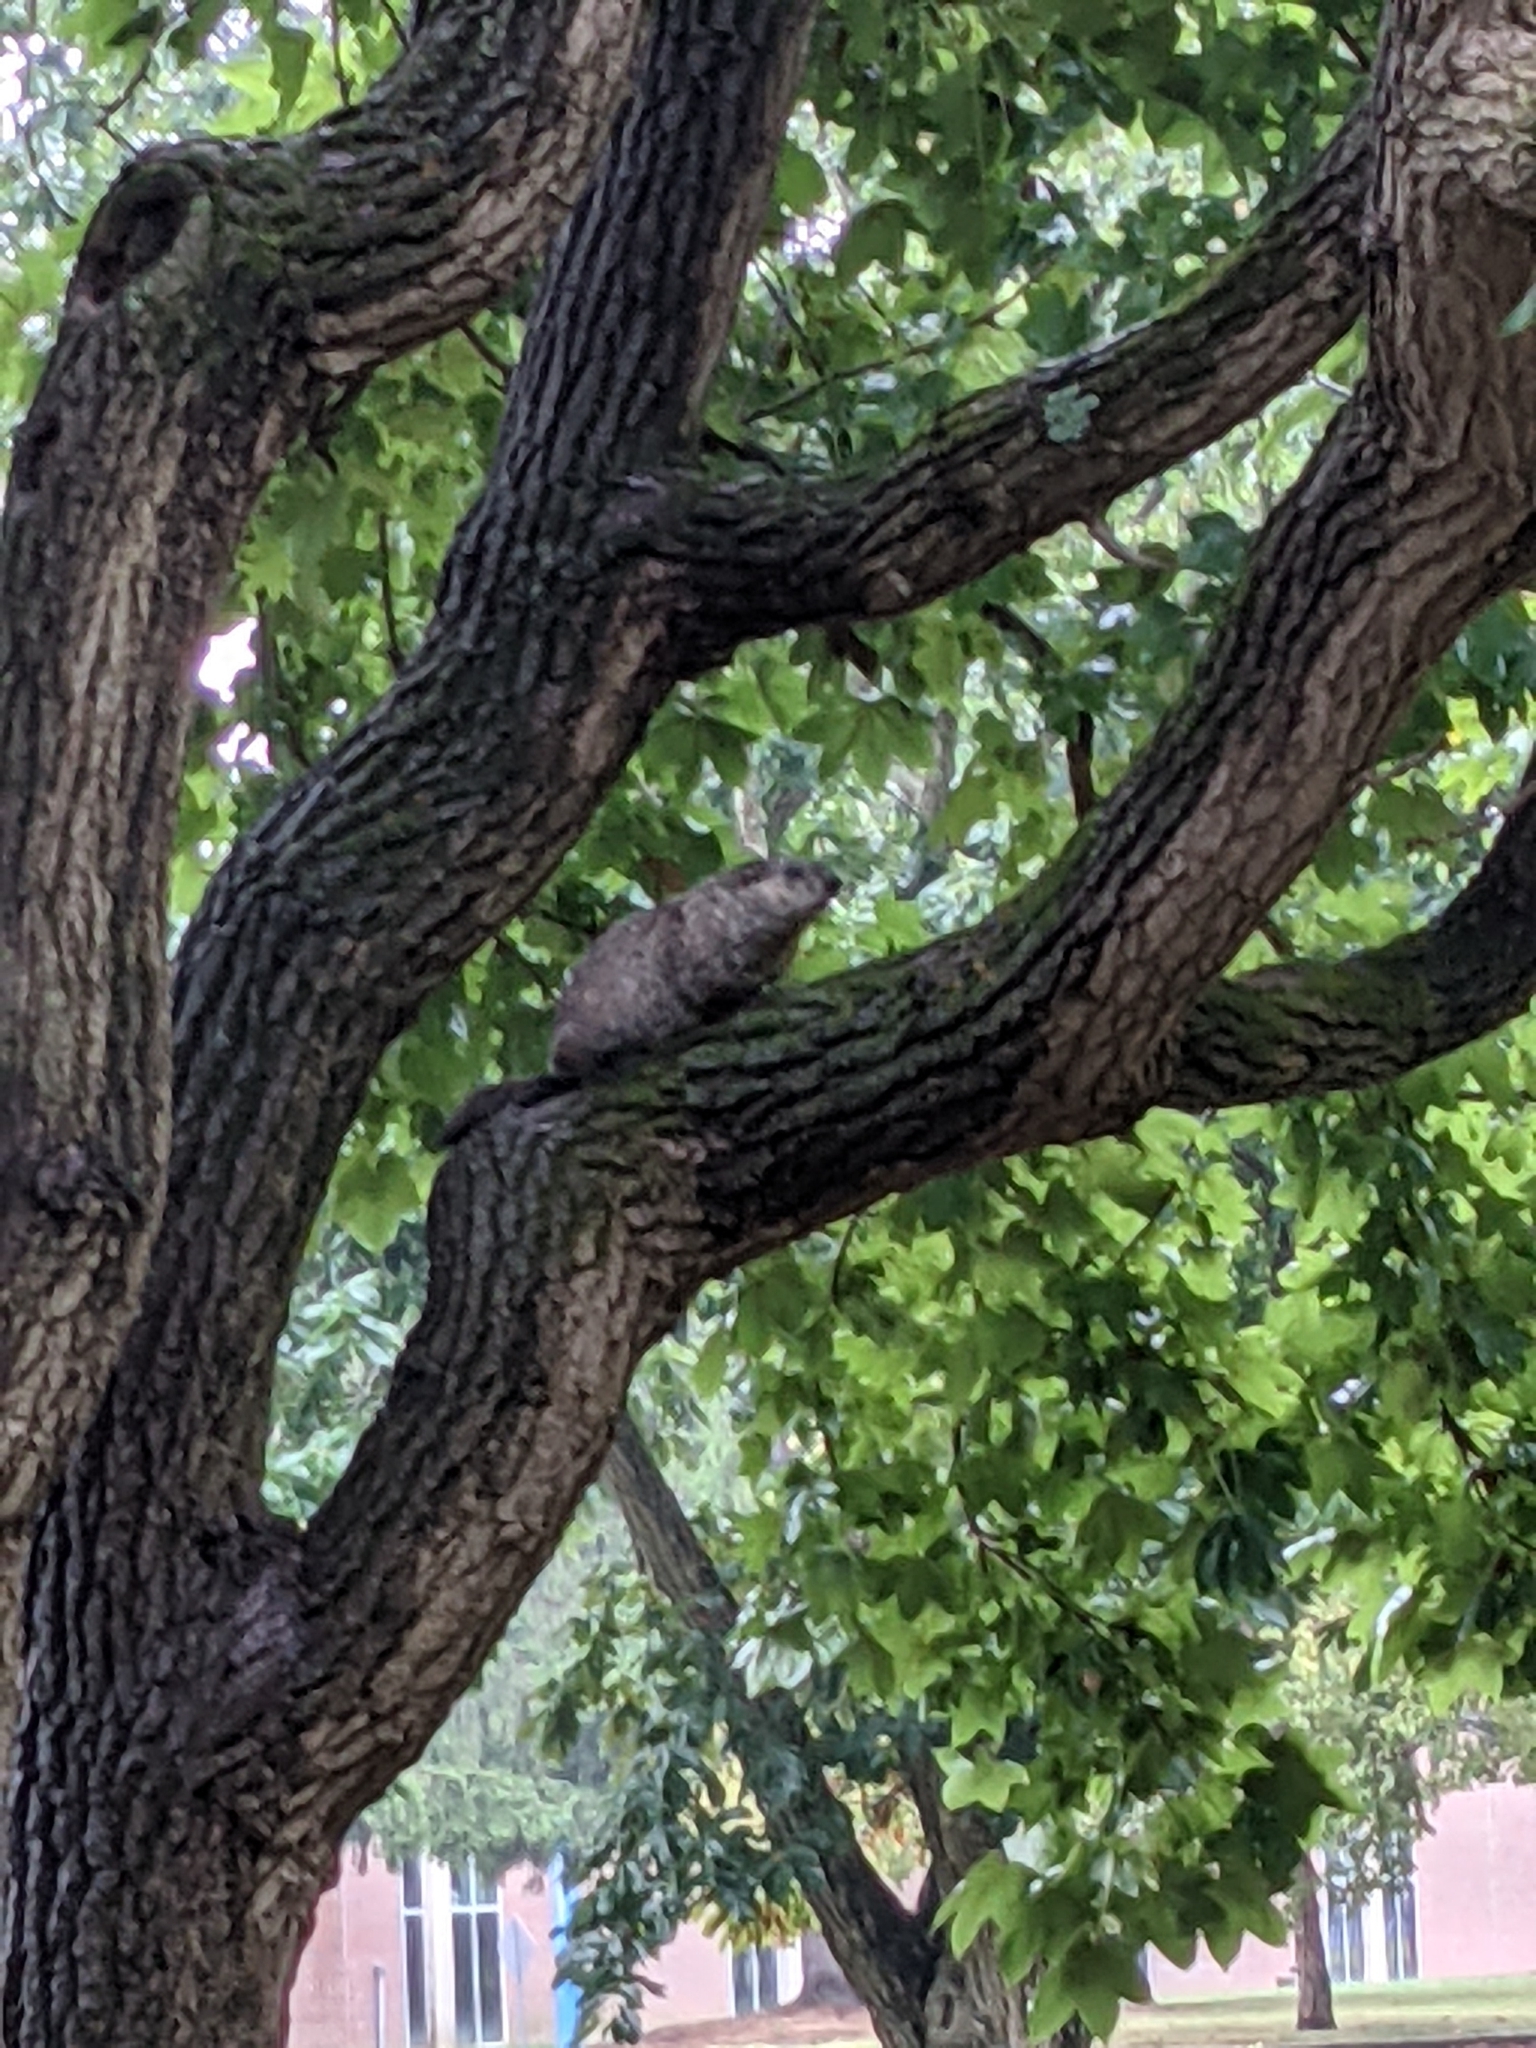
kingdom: Animalia
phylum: Chordata
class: Mammalia
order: Rodentia
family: Sciuridae
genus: Marmota
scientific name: Marmota monax
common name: Groundhog
